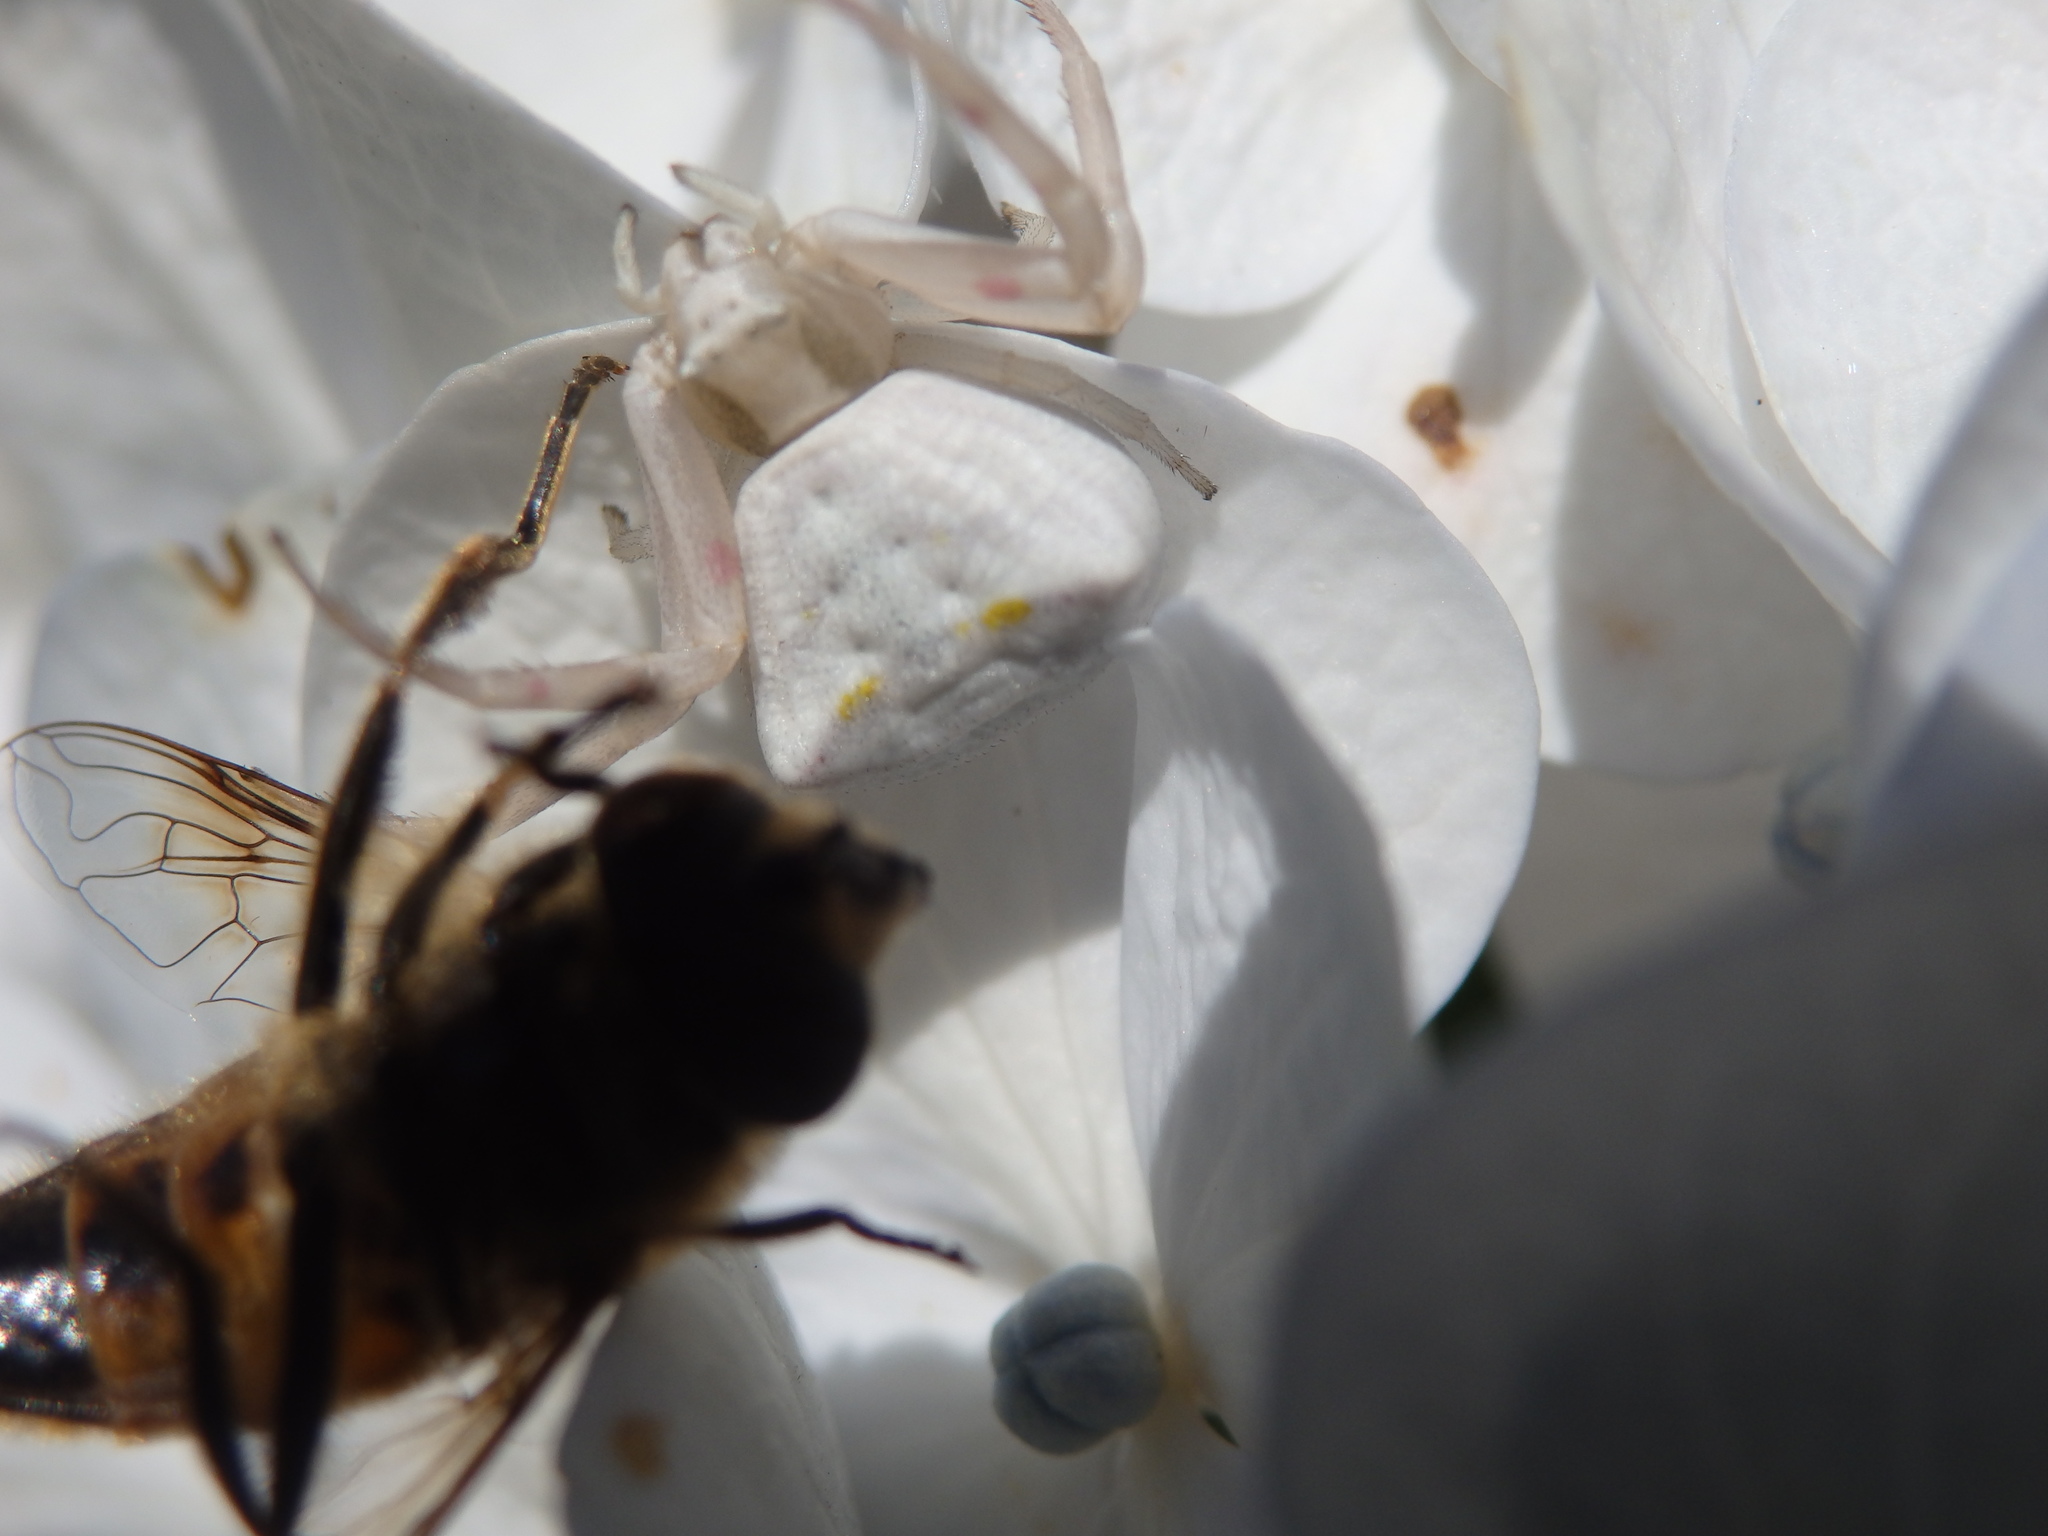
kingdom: Animalia
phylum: Arthropoda
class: Arachnida
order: Araneae
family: Thomisidae
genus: Thomisus
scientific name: Thomisus onustus
